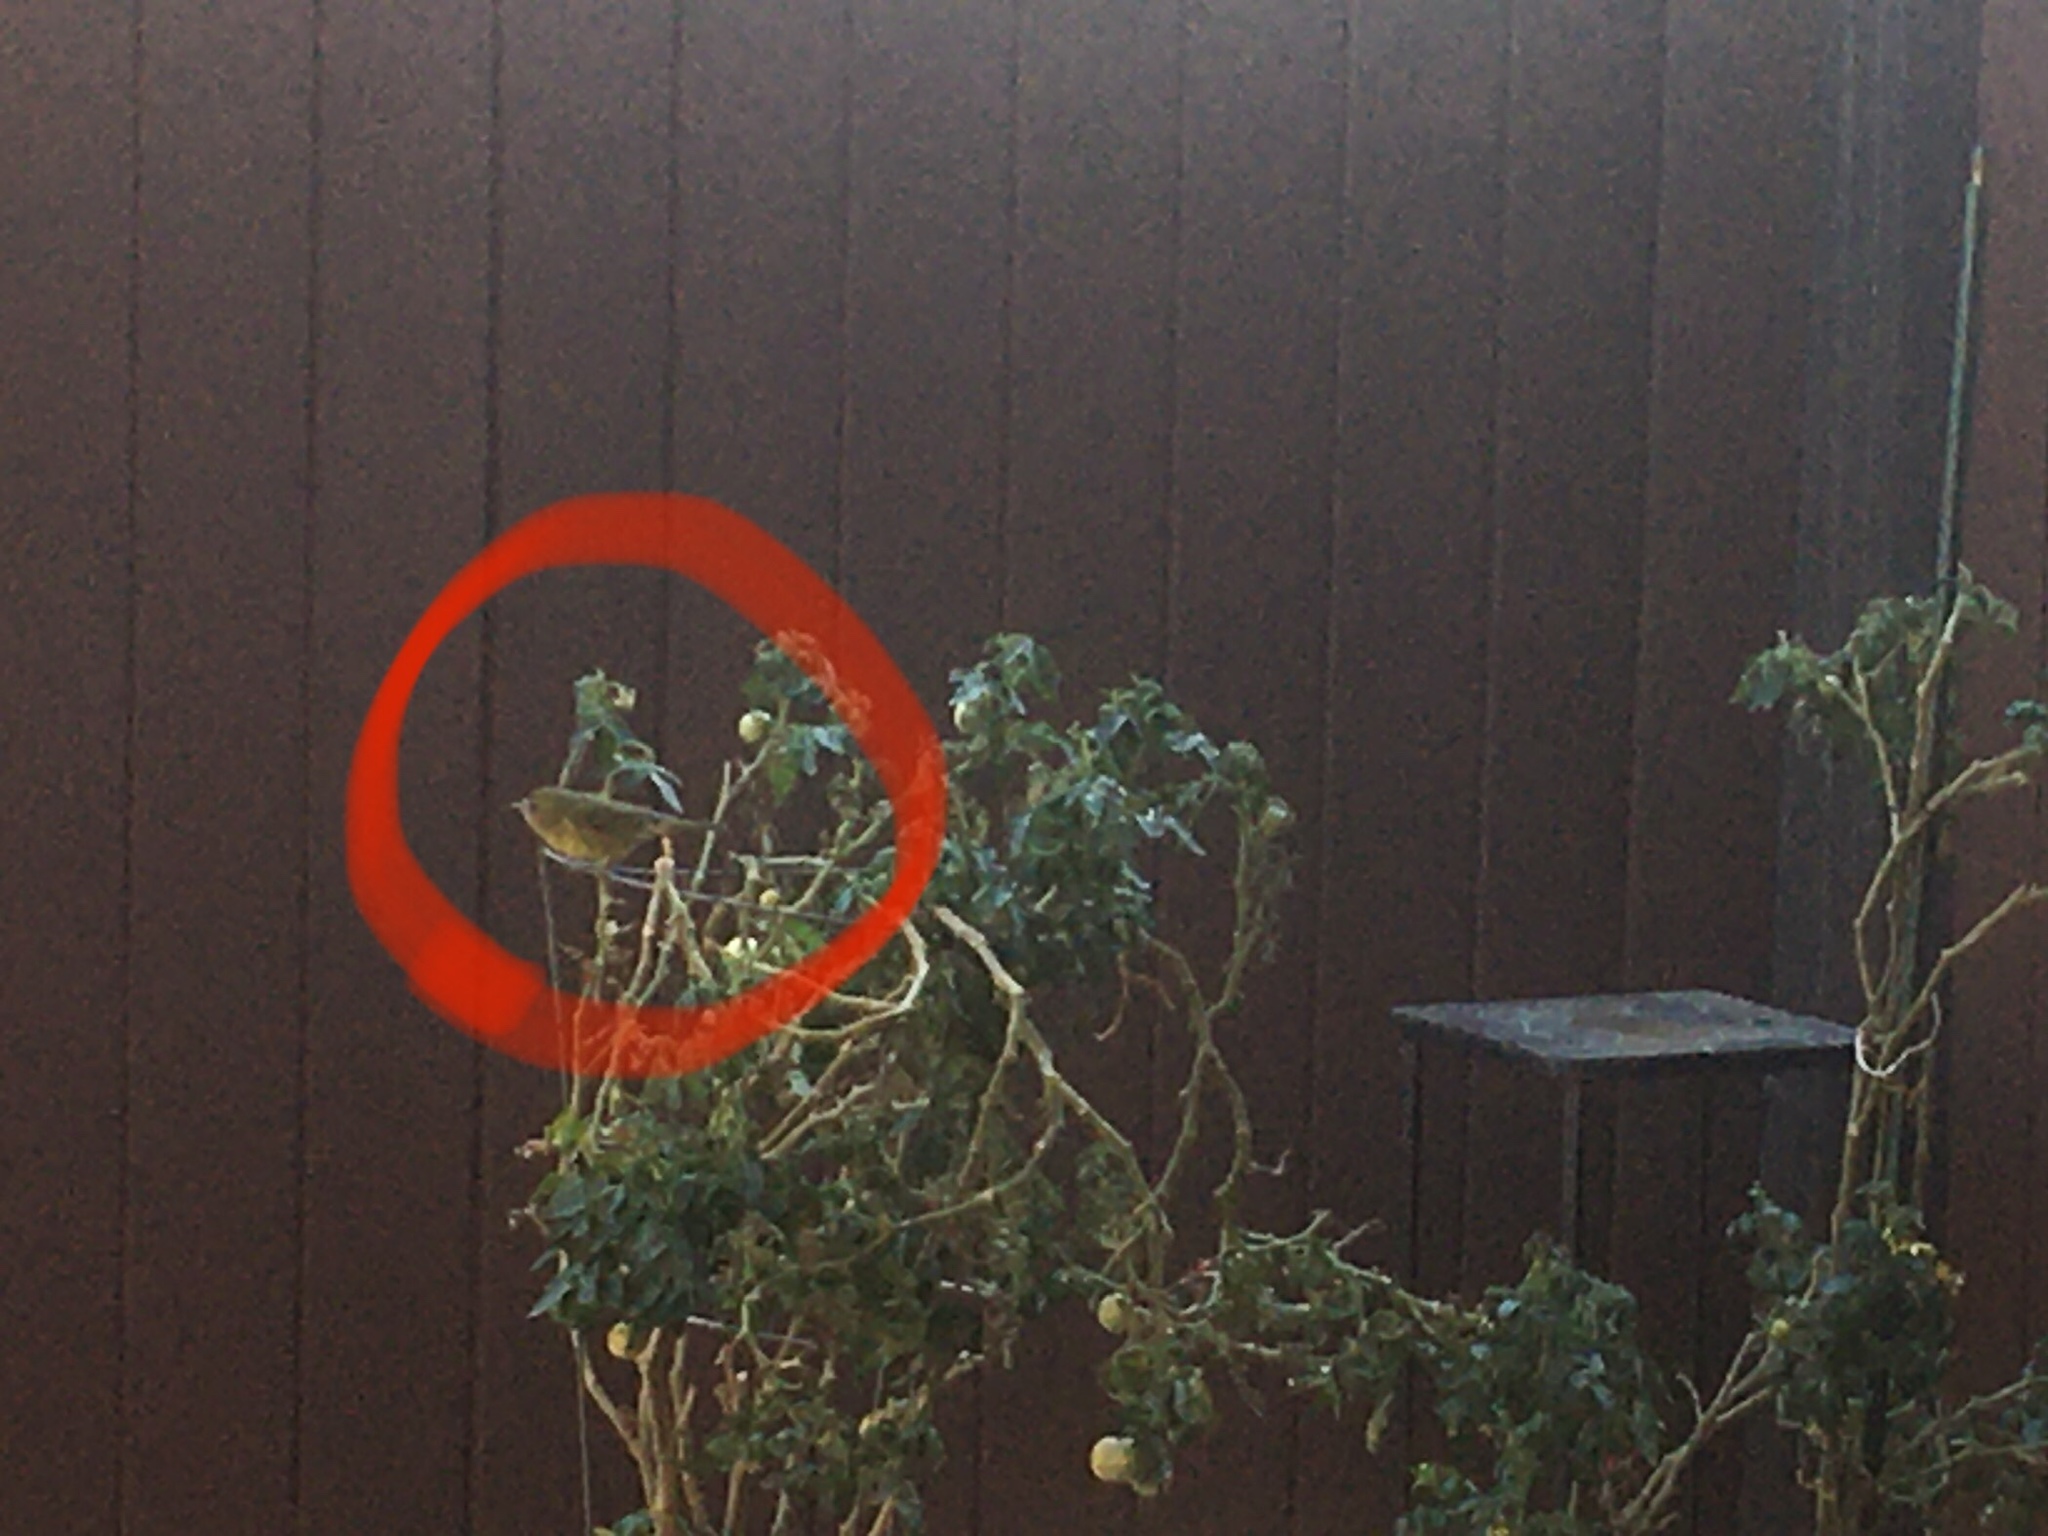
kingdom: Animalia
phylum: Chordata
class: Aves
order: Passeriformes
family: Parulidae
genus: Leiothlypis
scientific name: Leiothlypis celata
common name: Orange-crowned warbler
